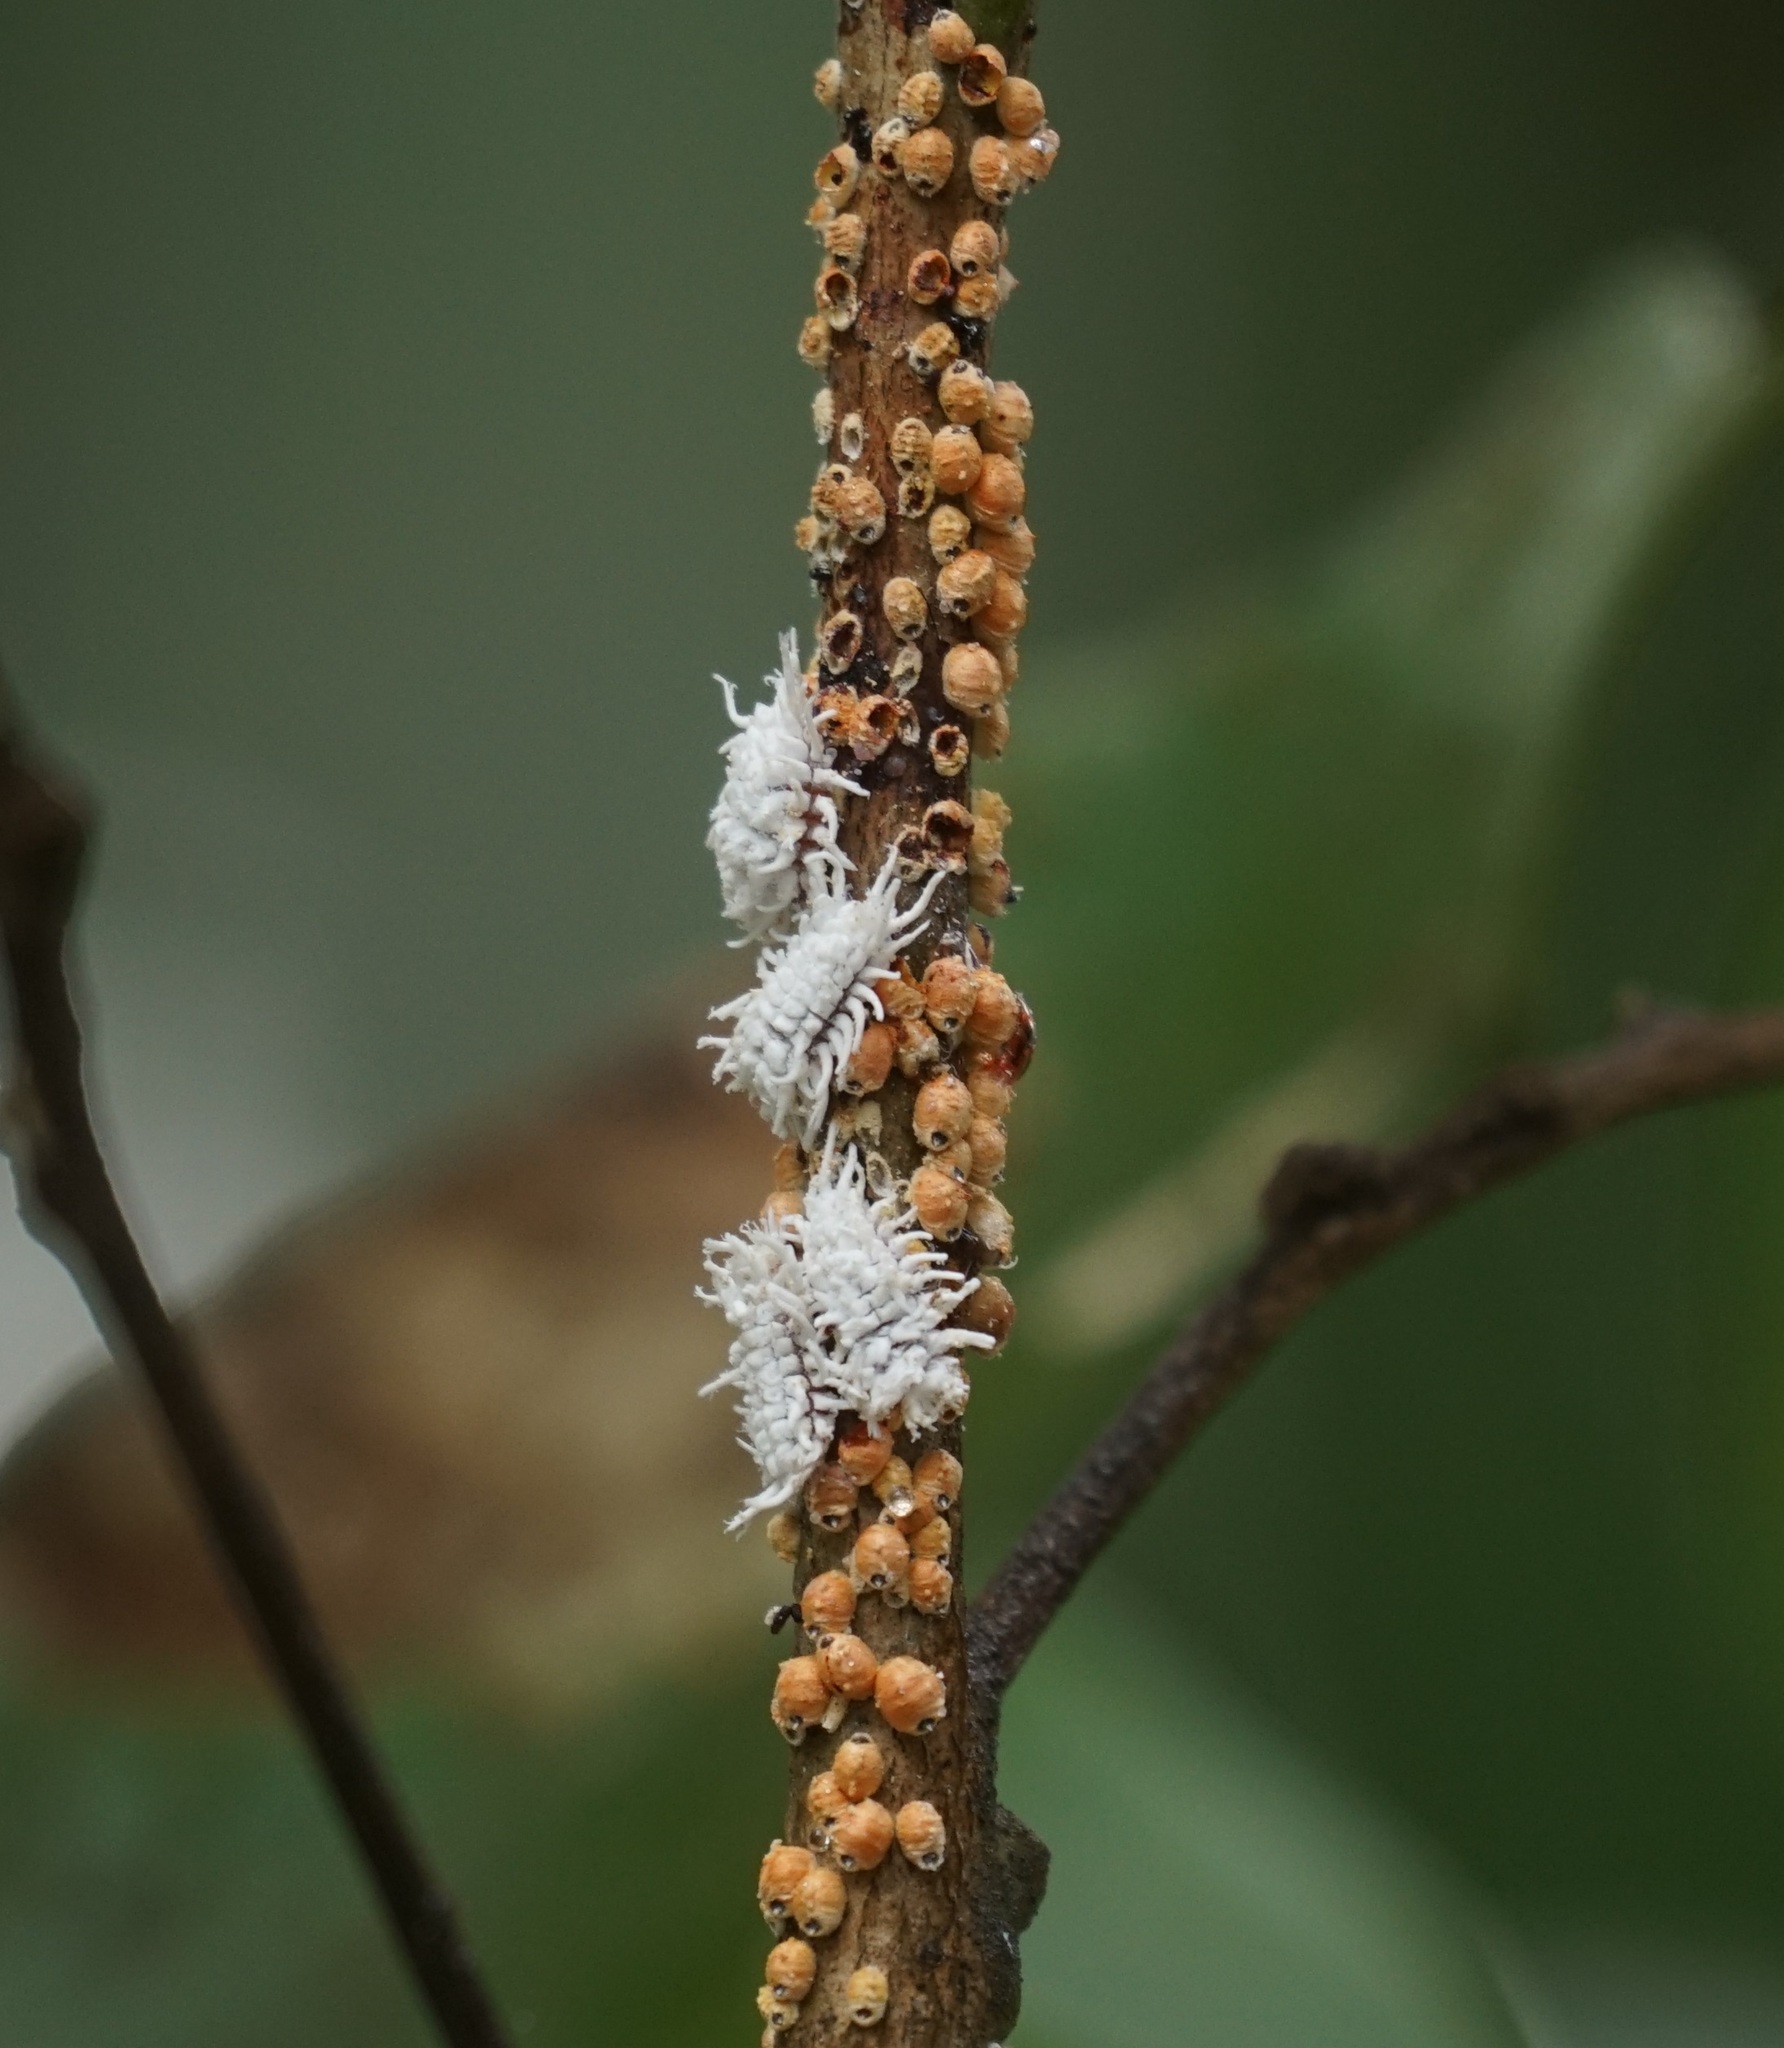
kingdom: Animalia
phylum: Arthropoda
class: Insecta
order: Coleoptera
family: Coccinellidae
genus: Cryptolaemus
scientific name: Cryptolaemus montrouzieri
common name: Mealybug destroyer
